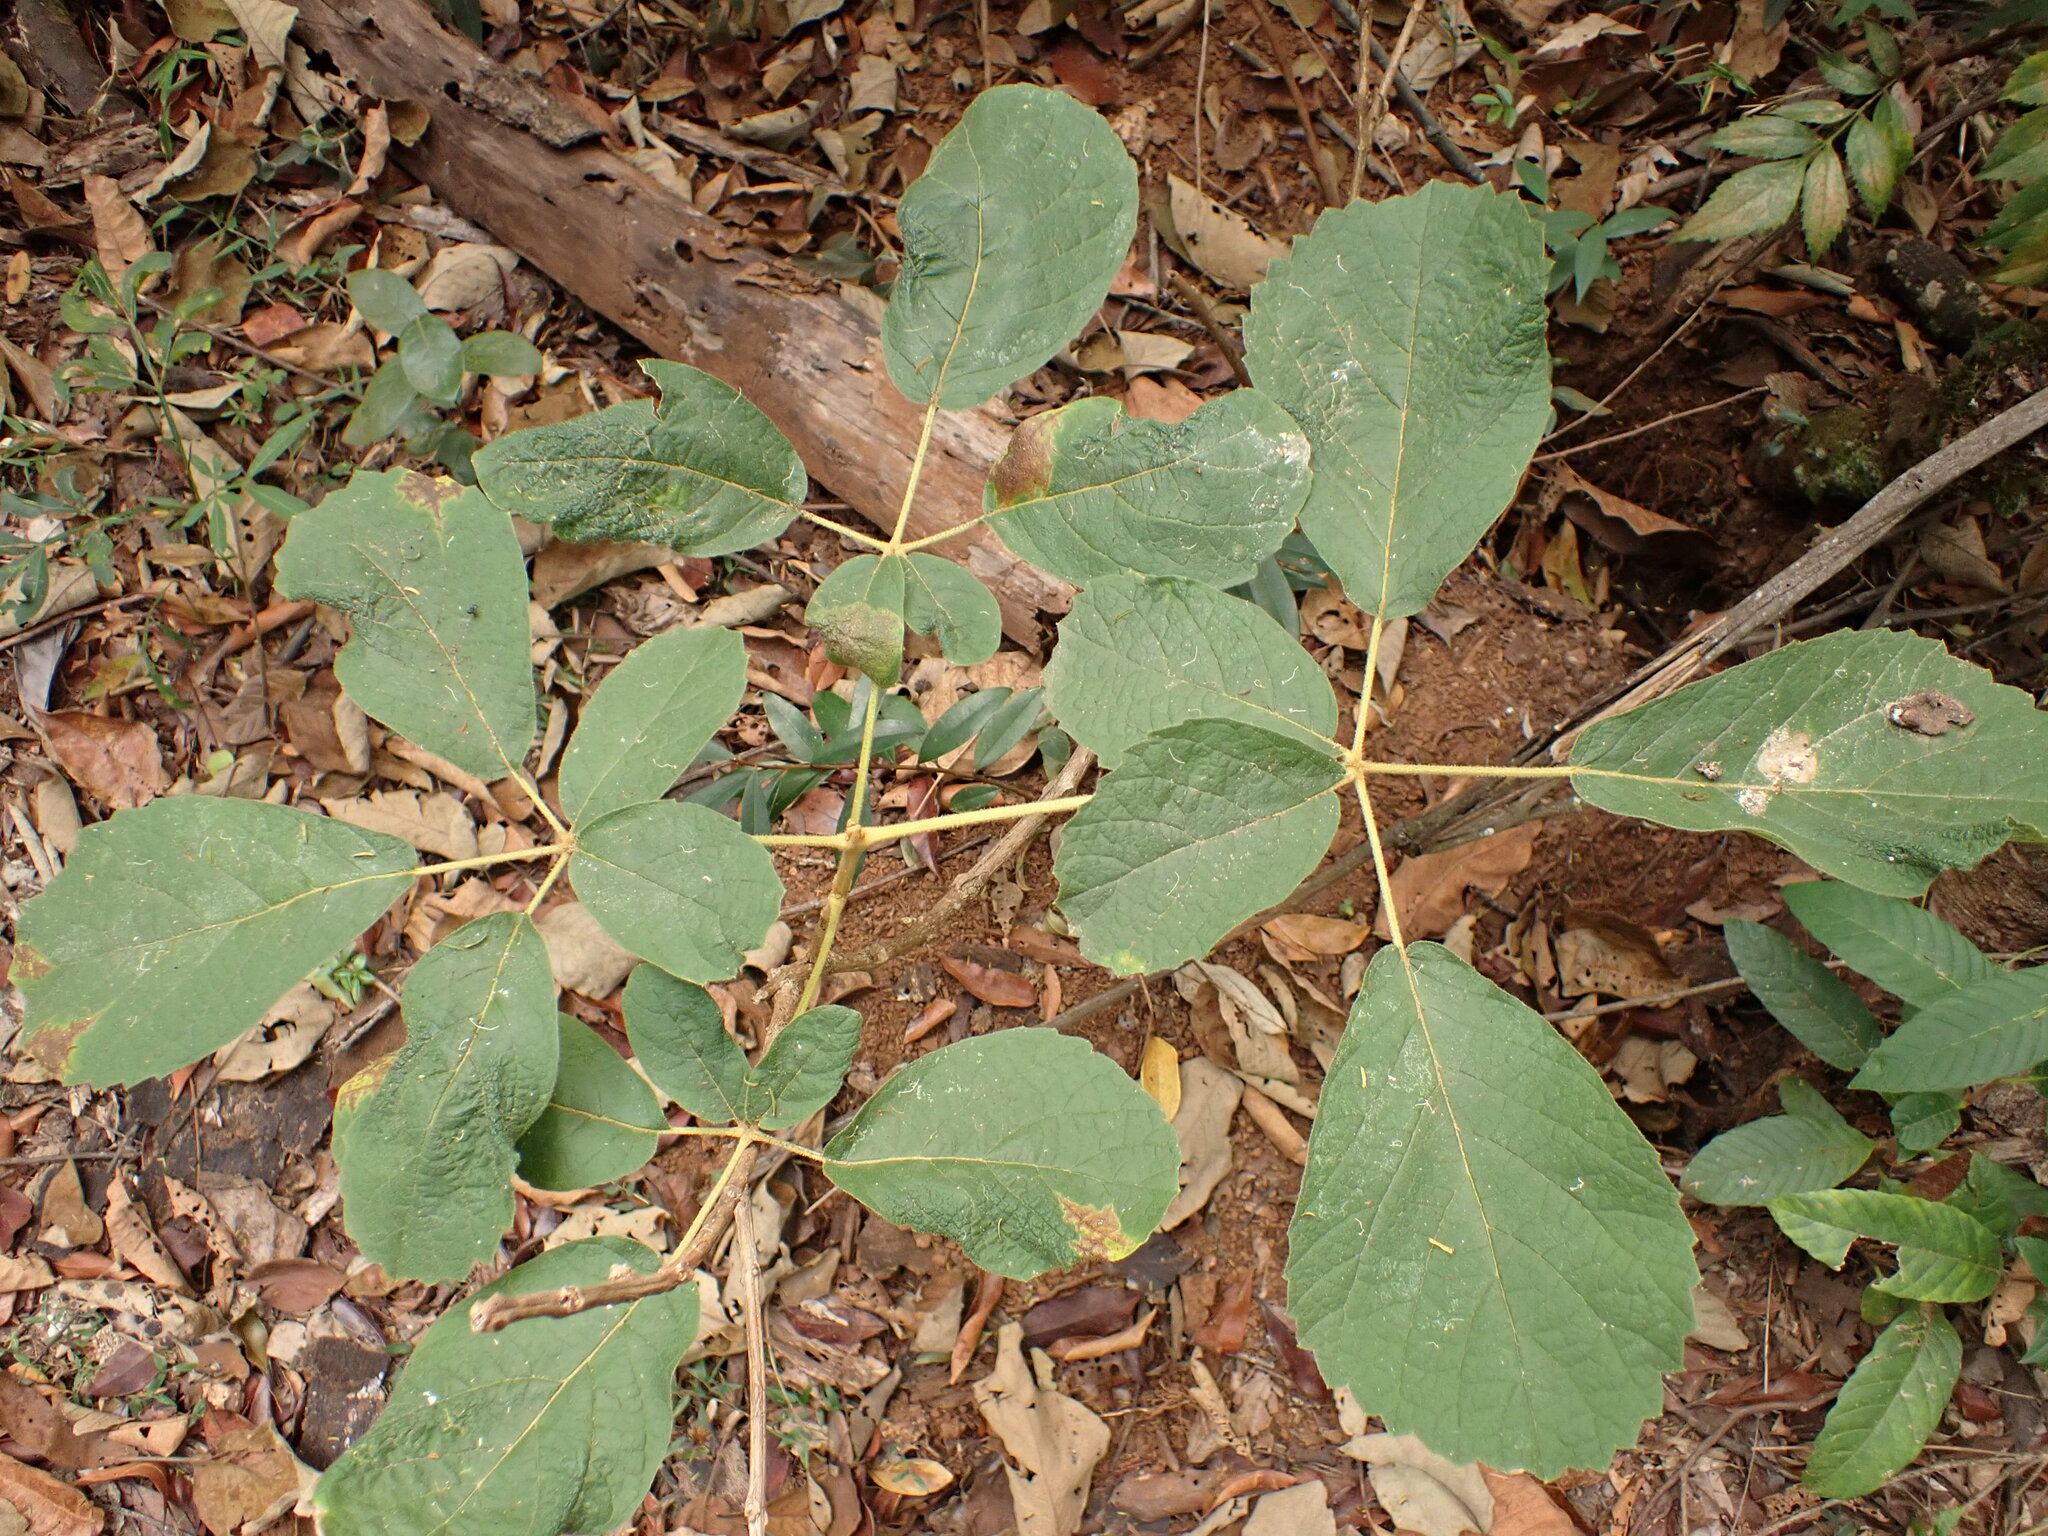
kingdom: Plantae
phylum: Tracheophyta
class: Magnoliopsida
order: Lamiales
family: Bignoniaceae
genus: Handroanthus
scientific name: Handroanthus chrysotrichus
